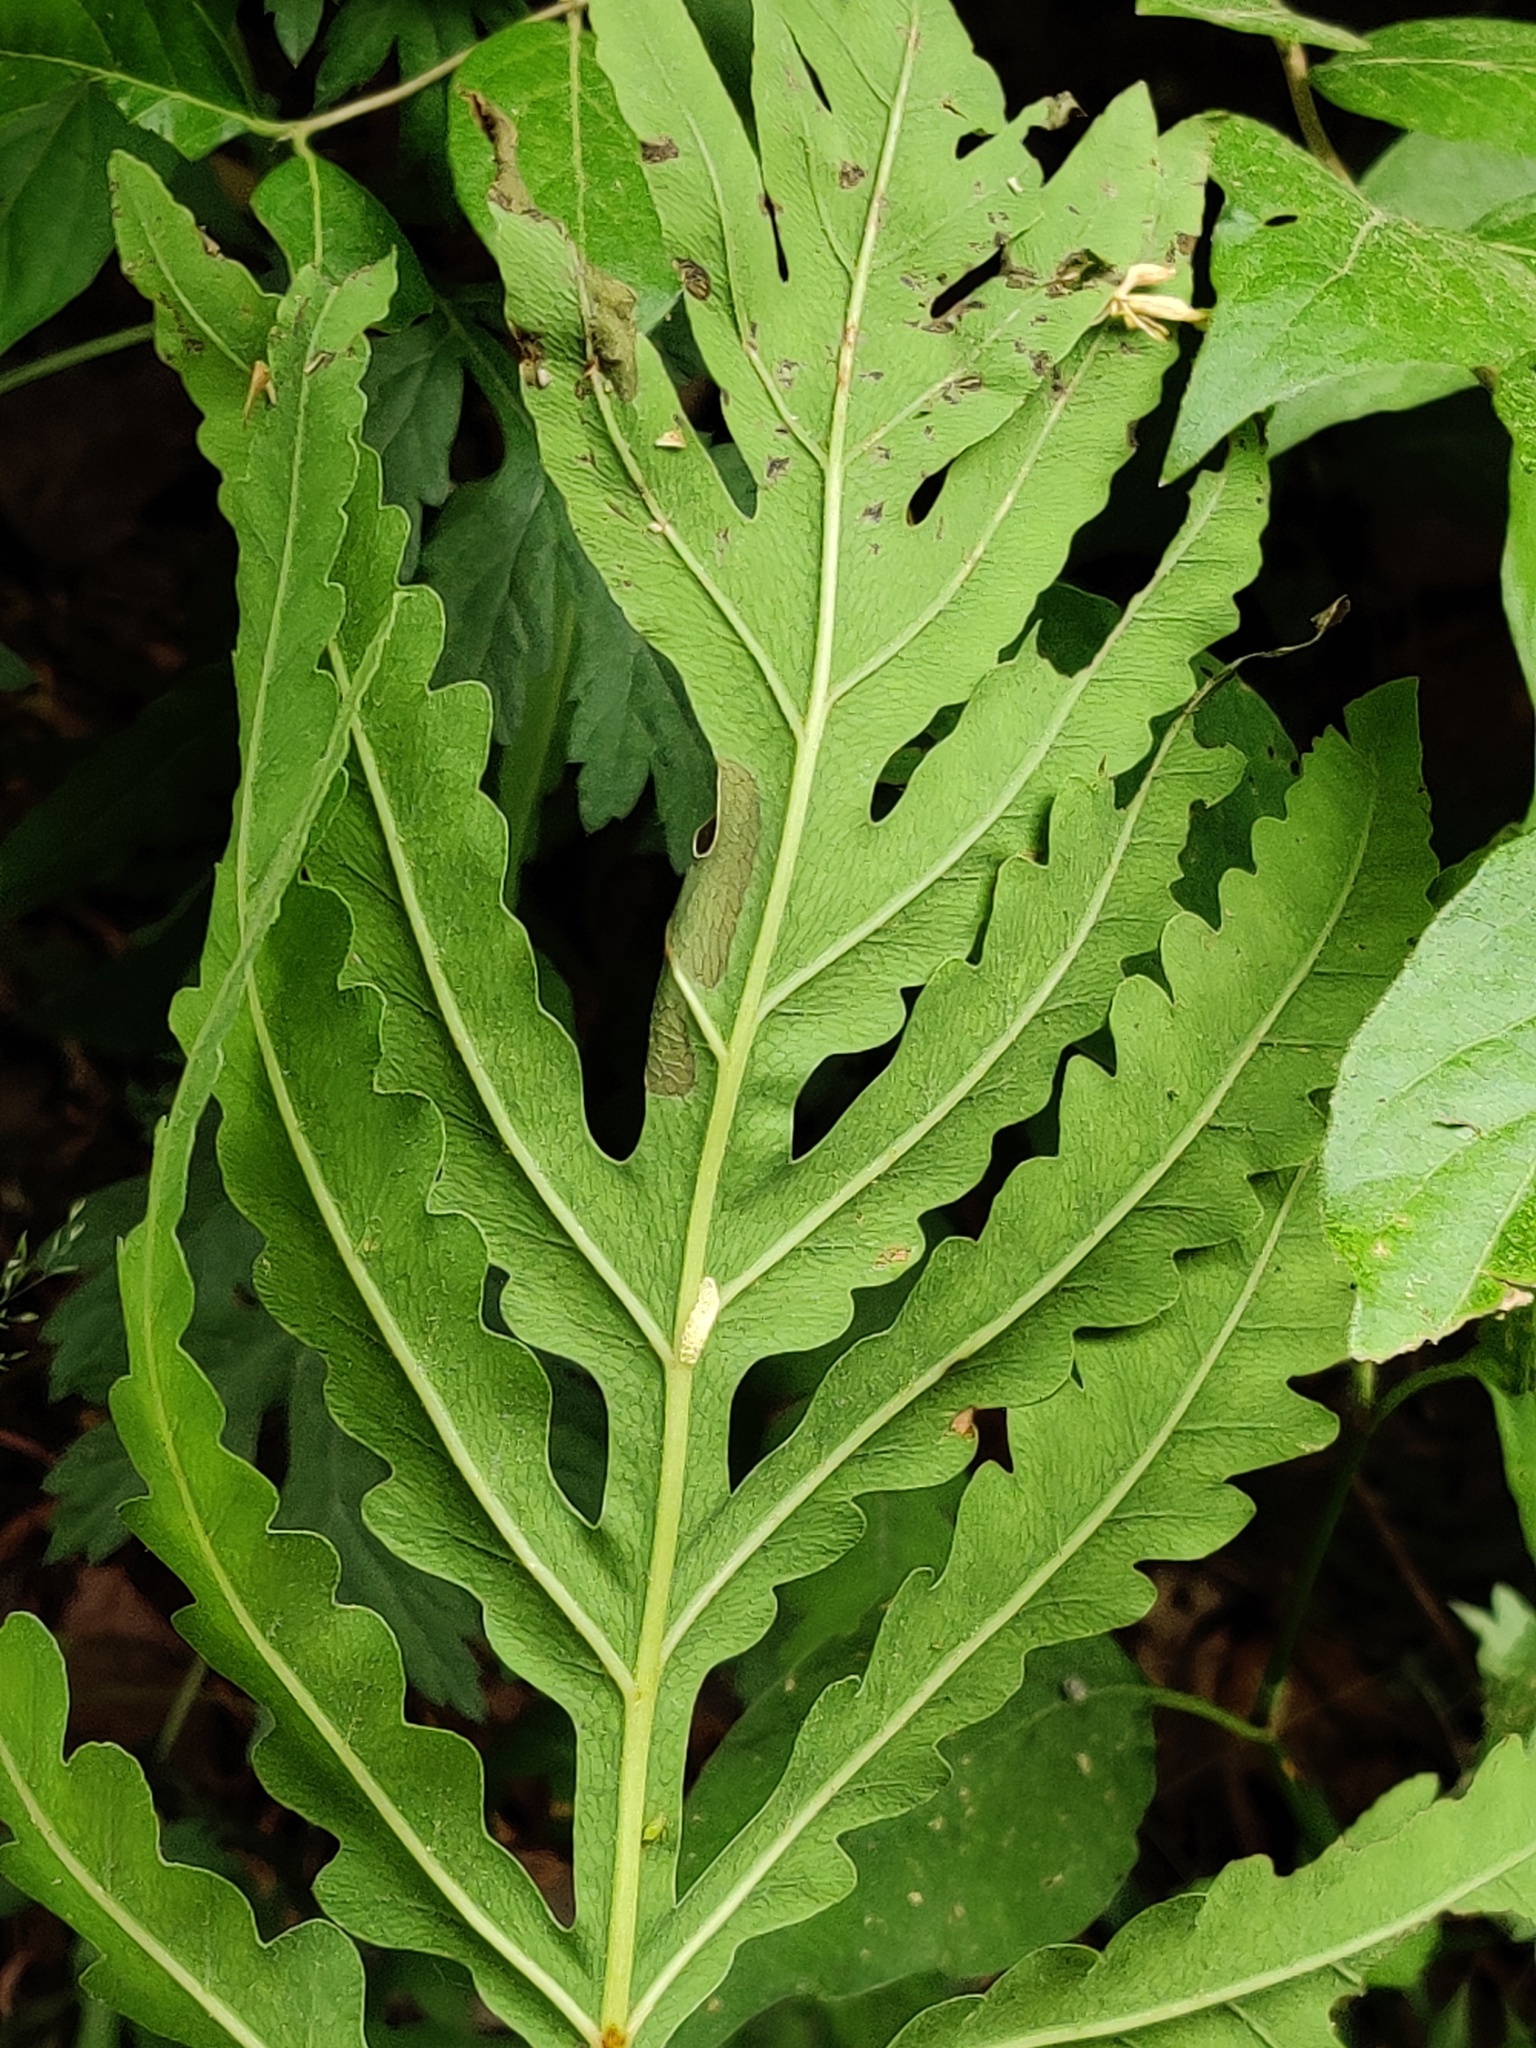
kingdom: Plantae
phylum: Tracheophyta
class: Polypodiopsida
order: Polypodiales
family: Onocleaceae
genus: Onoclea
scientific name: Onoclea sensibilis
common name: Sensitive fern
